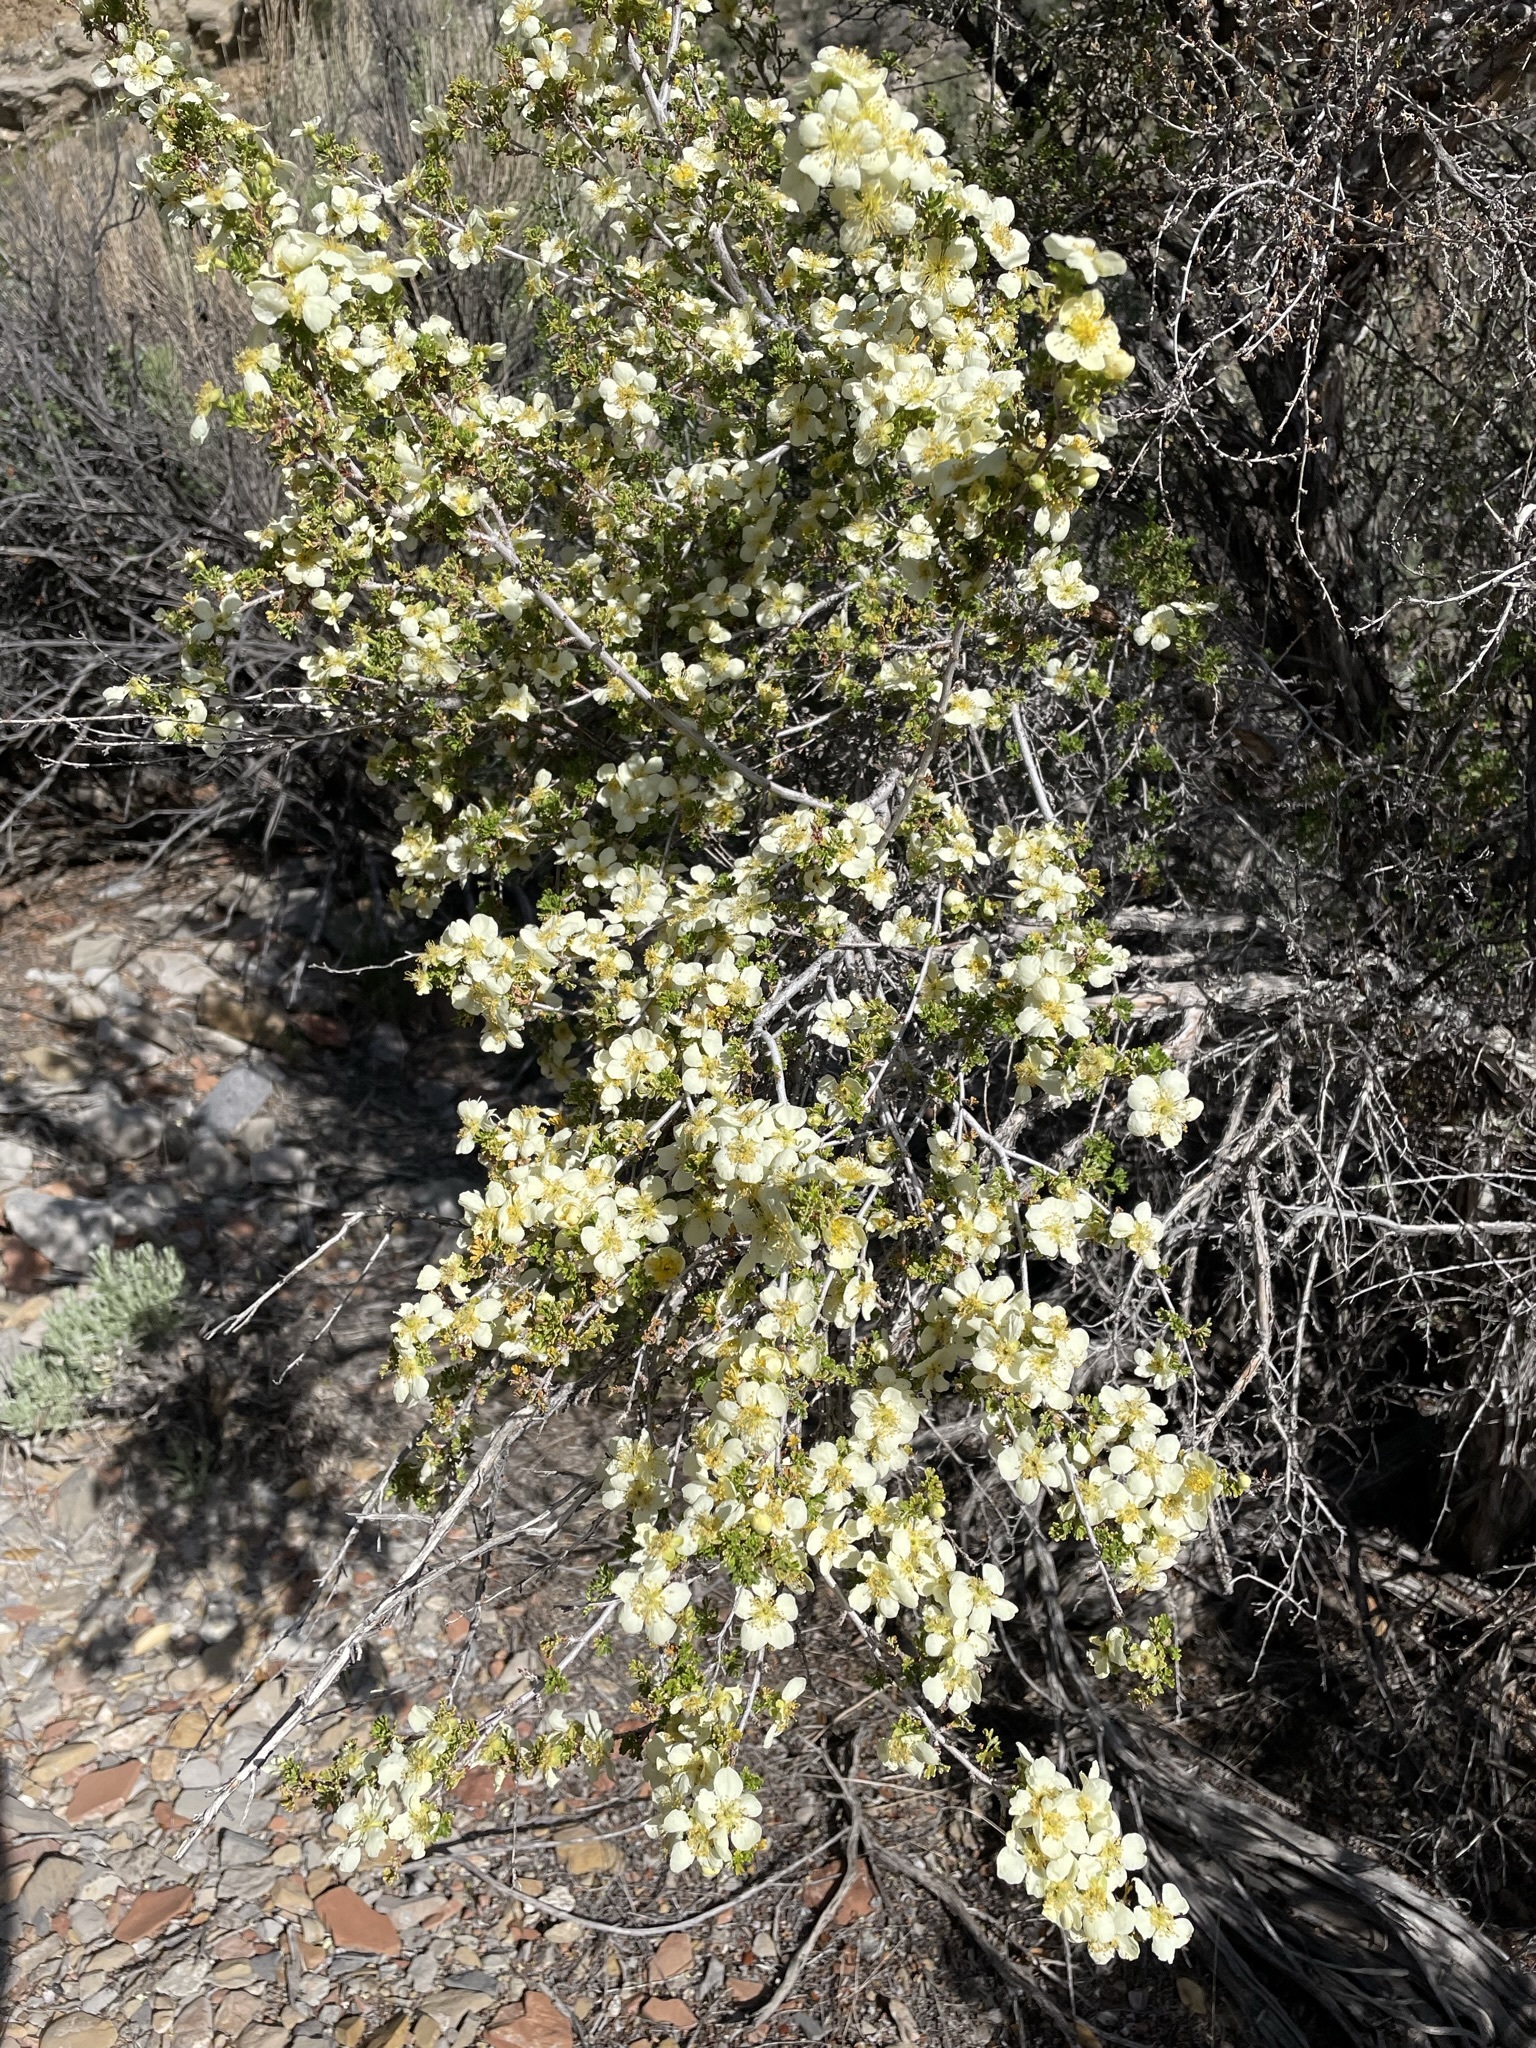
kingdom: Plantae
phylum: Tracheophyta
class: Magnoliopsida
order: Rosales
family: Rosaceae
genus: Purshia
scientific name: Purshia stansburiana
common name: Stansbury's cliffrose
